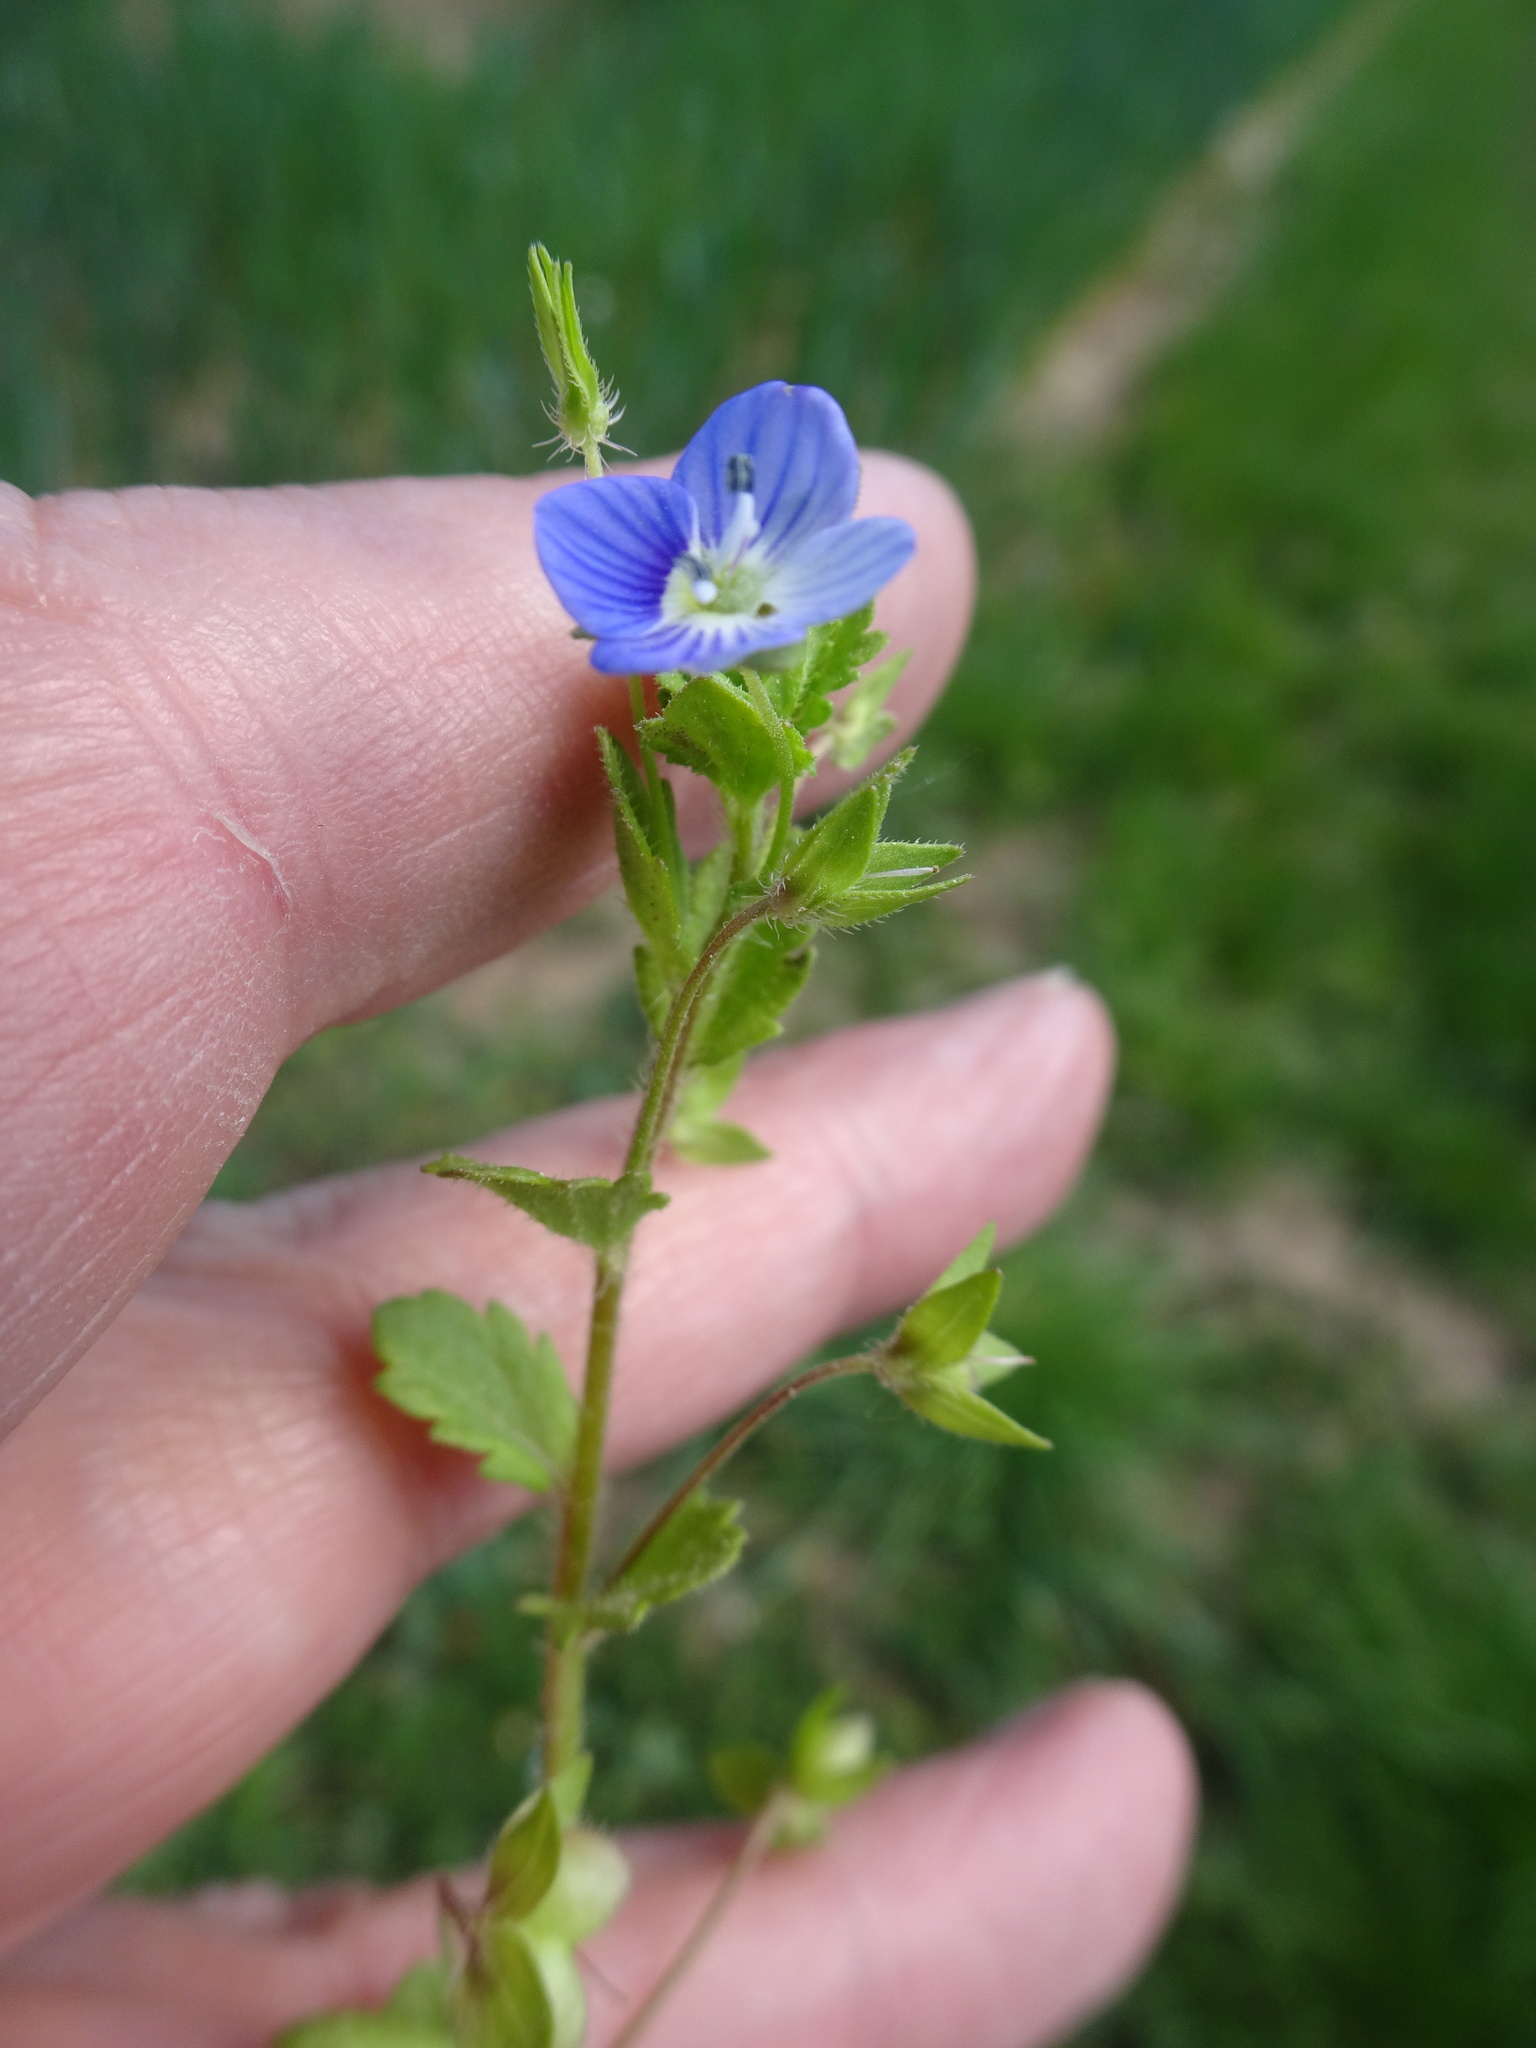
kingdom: Plantae
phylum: Tracheophyta
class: Magnoliopsida
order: Lamiales
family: Plantaginaceae
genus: Veronica
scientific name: Veronica persica
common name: Common field-speedwell
